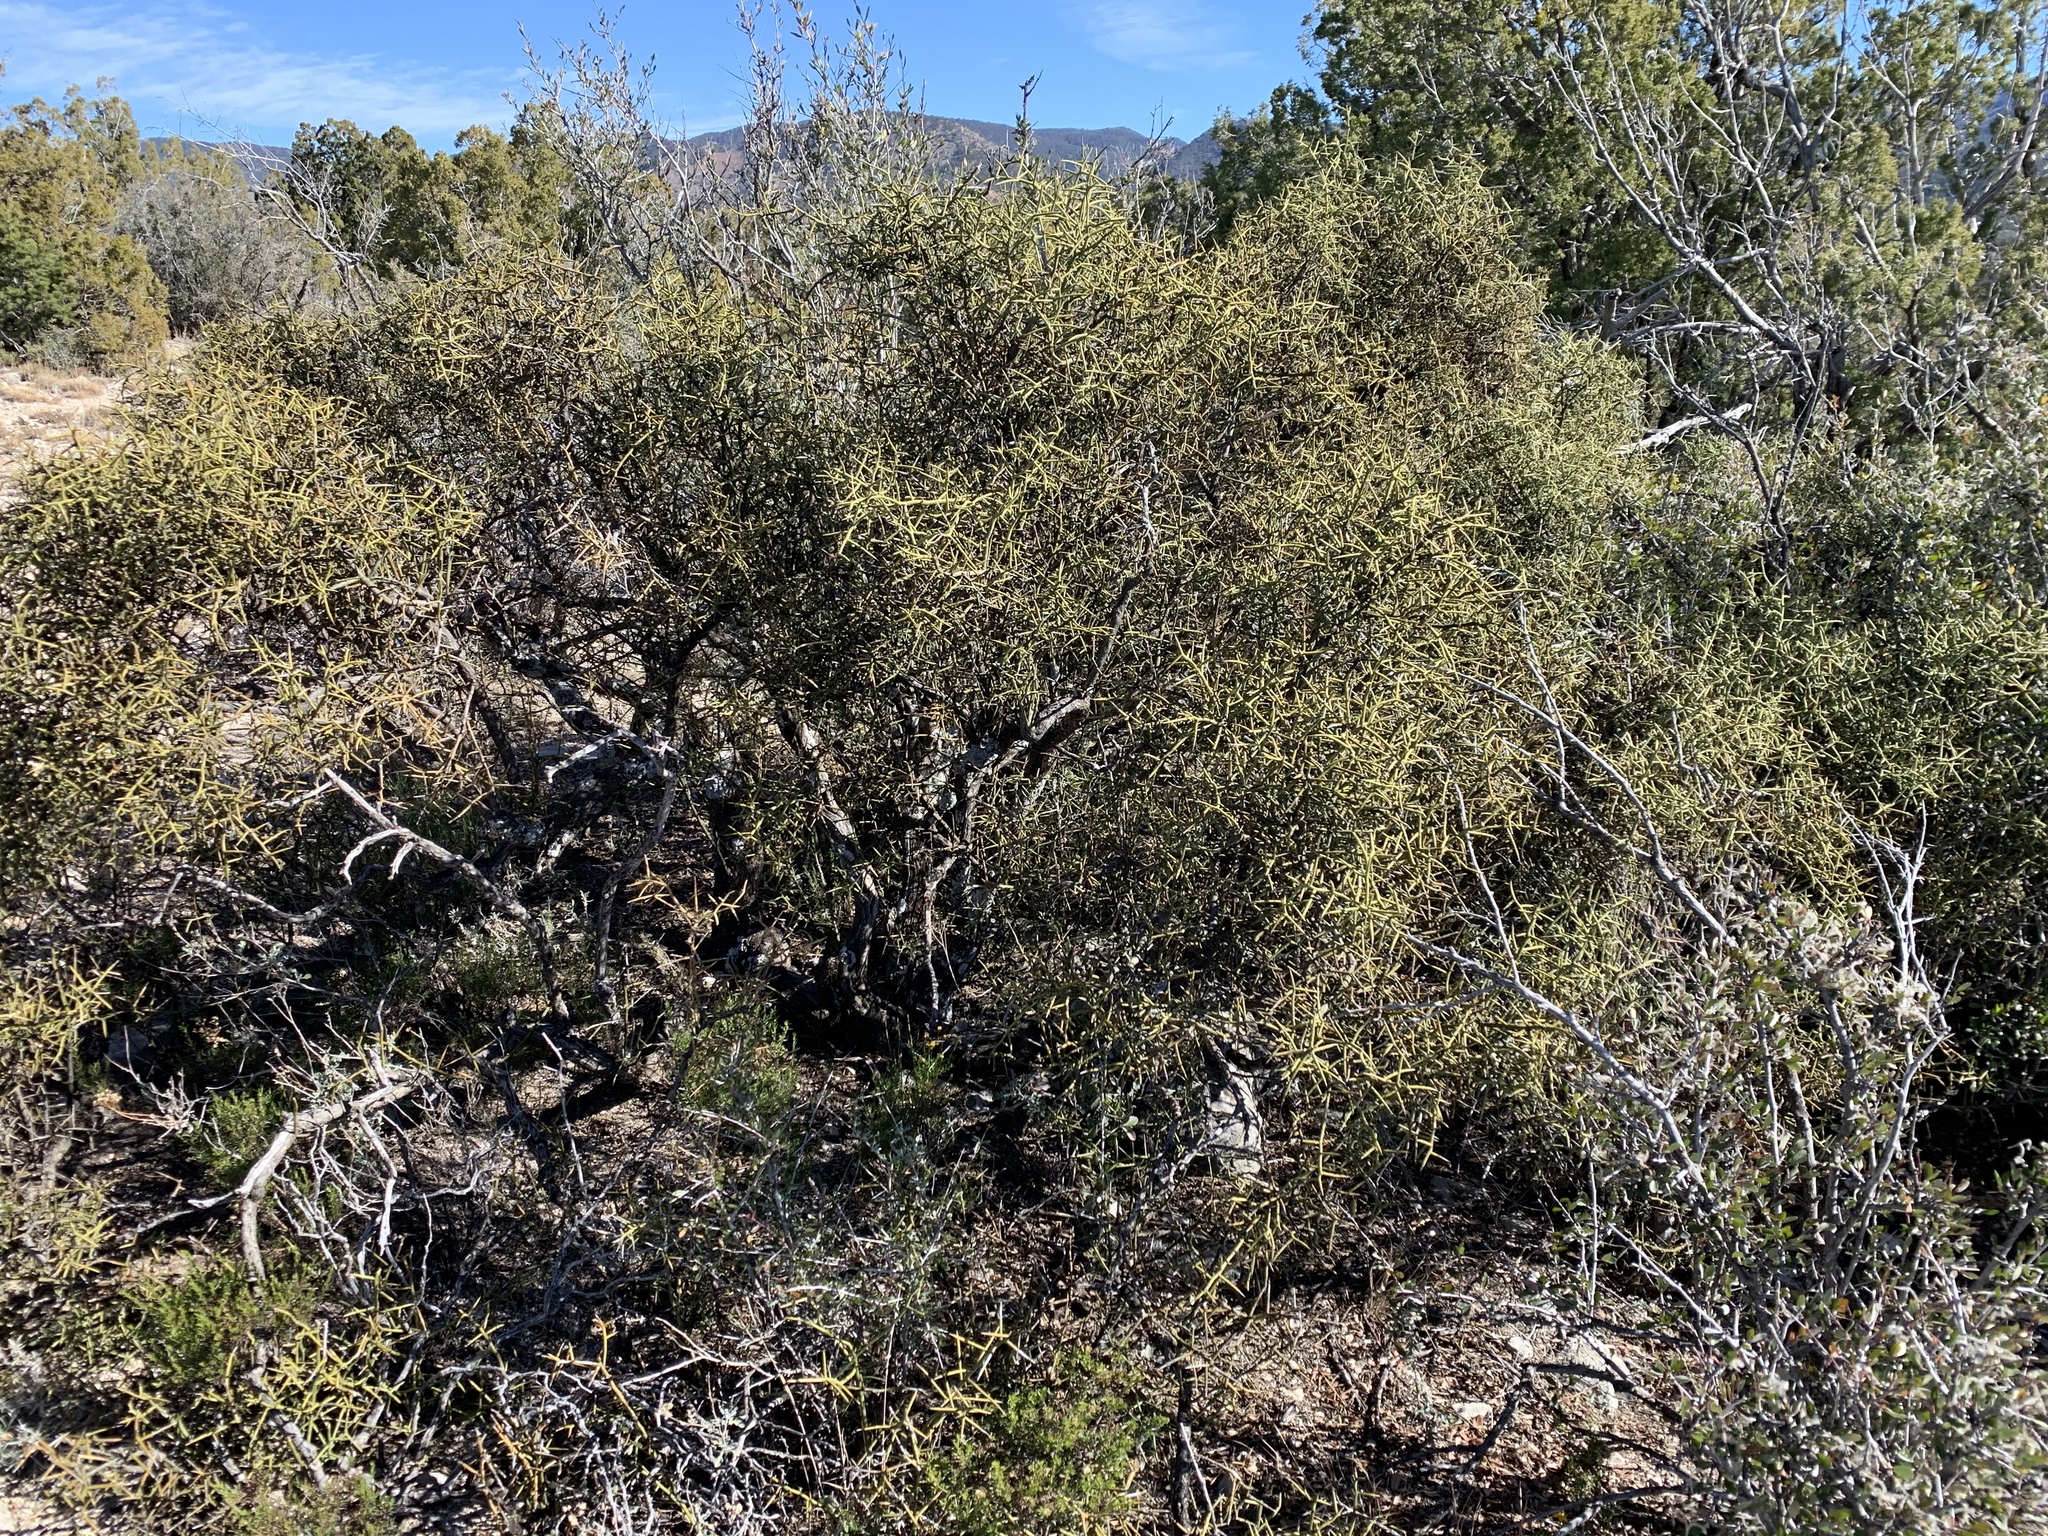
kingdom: Plantae
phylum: Tracheophyta
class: Magnoliopsida
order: Brassicales
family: Koeberliniaceae
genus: Koeberlinia
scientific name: Koeberlinia spinosa
